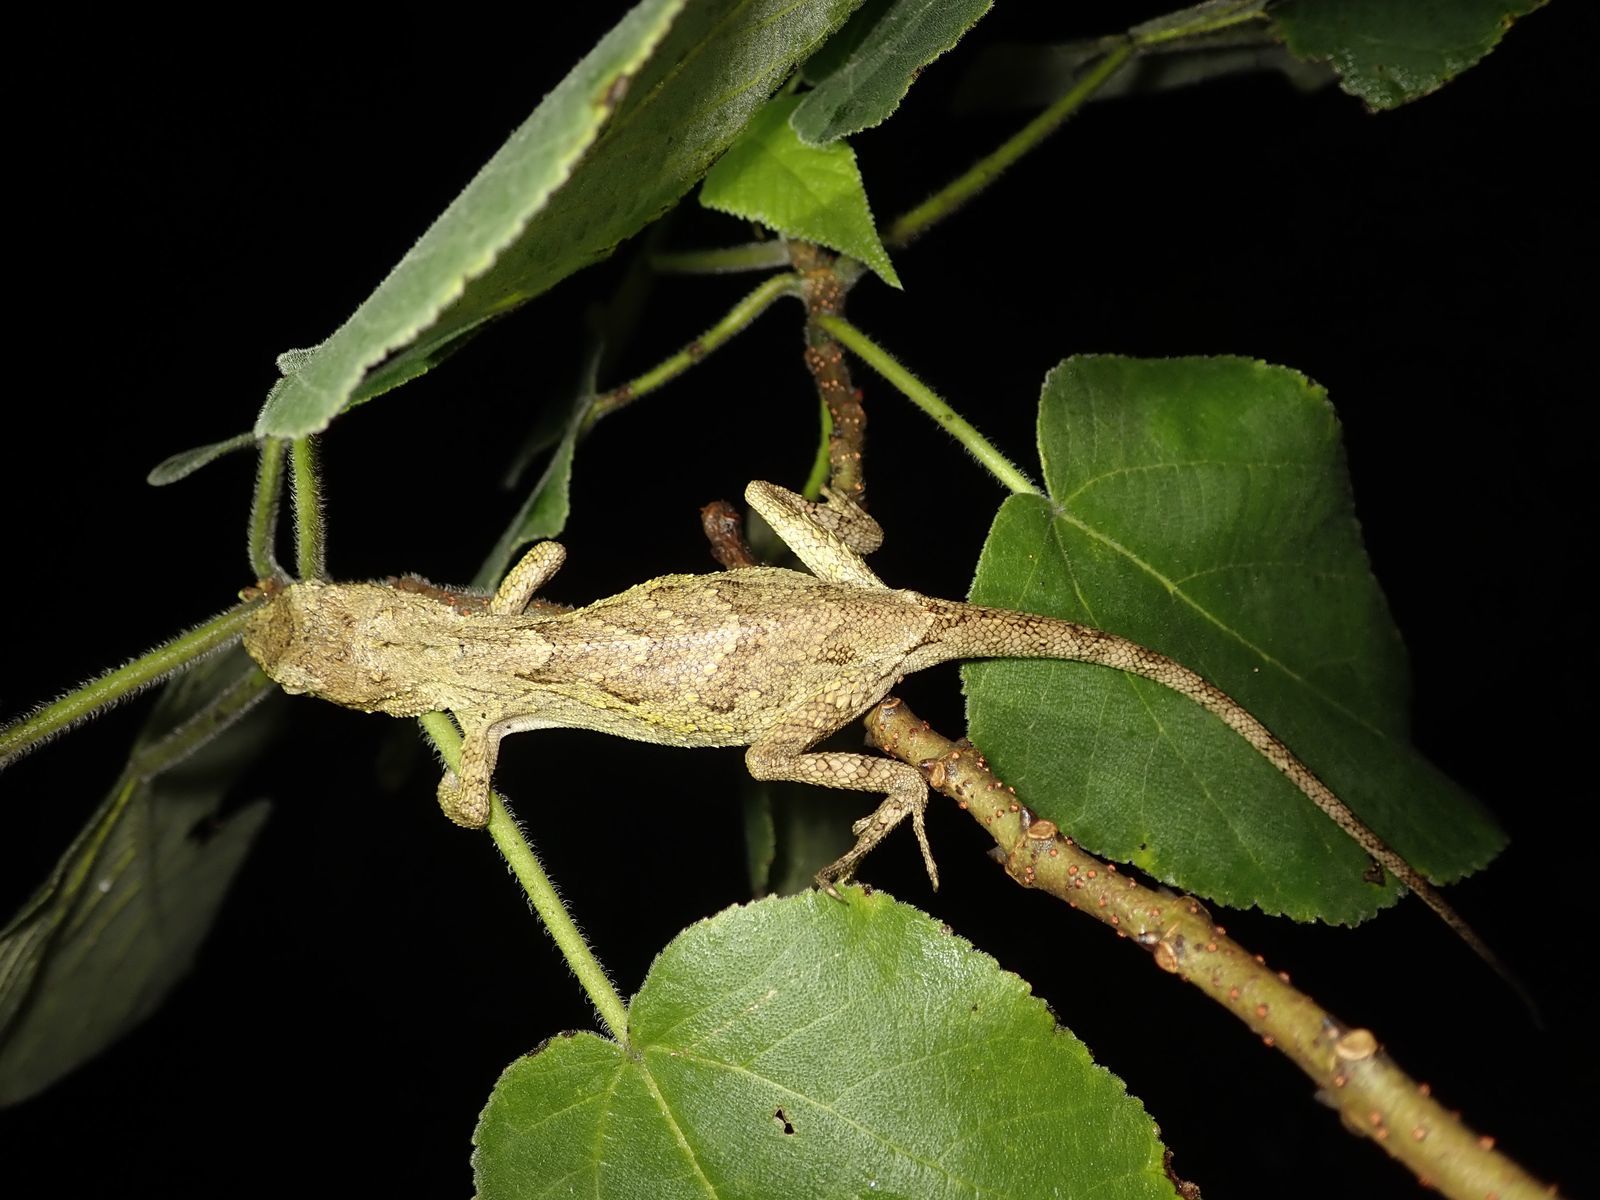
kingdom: Animalia
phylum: Chordata
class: Squamata
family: Agamidae
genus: Diploderma
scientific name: Diploderma swinhonis
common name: Taiwan japalure
